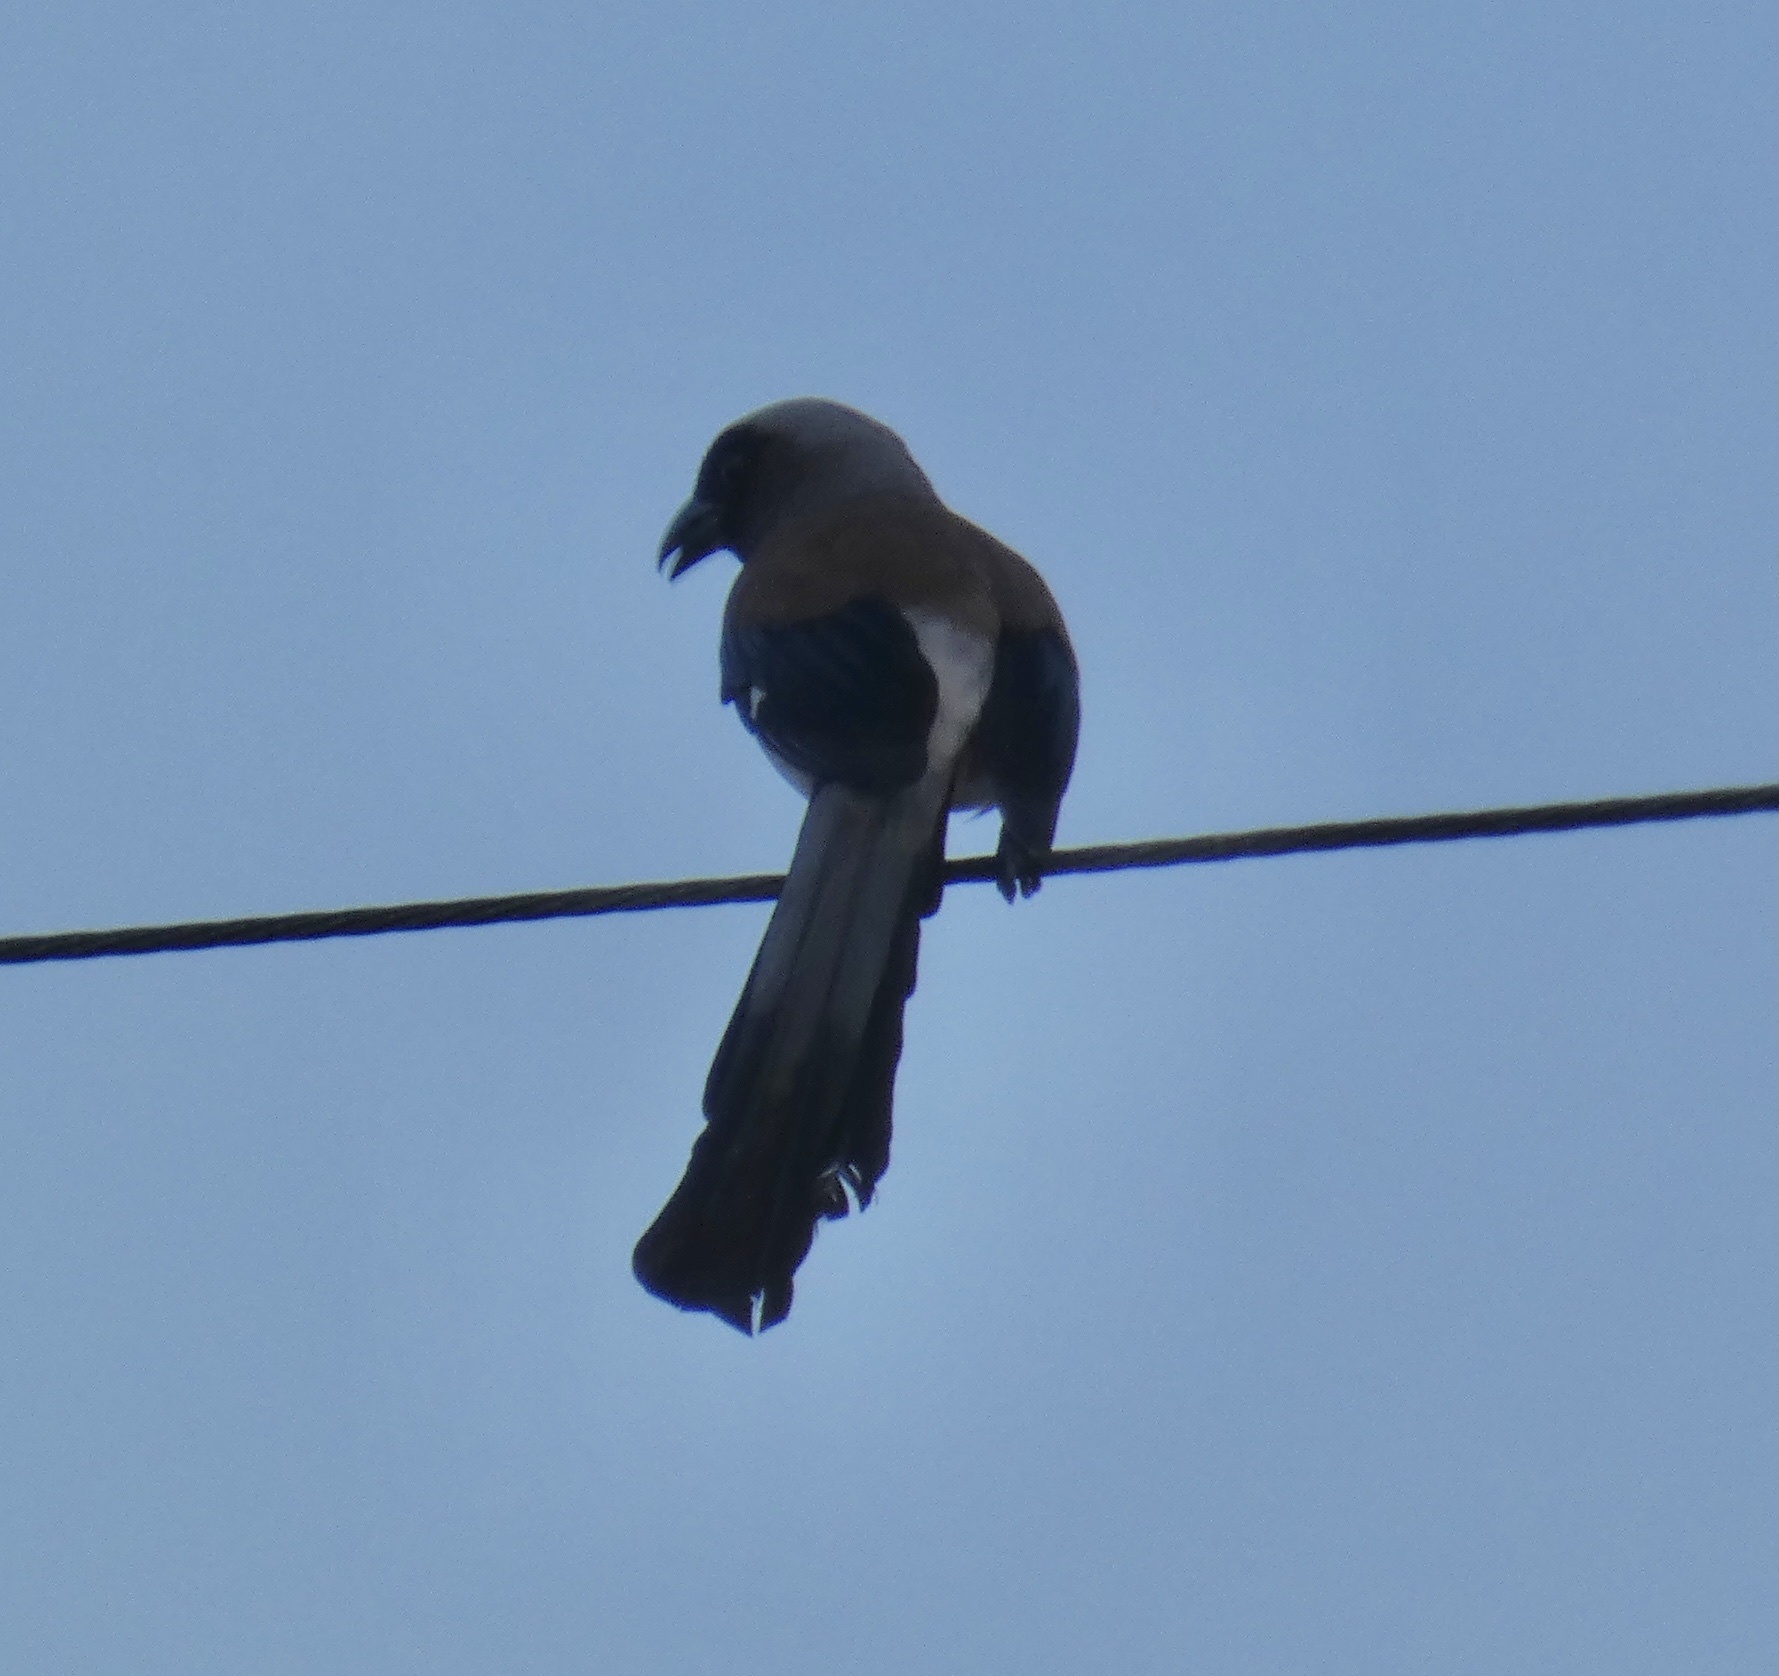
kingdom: Animalia
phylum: Chordata
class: Aves
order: Passeriformes
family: Corvidae
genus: Dendrocitta
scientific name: Dendrocitta formosae
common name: Grey treepie
